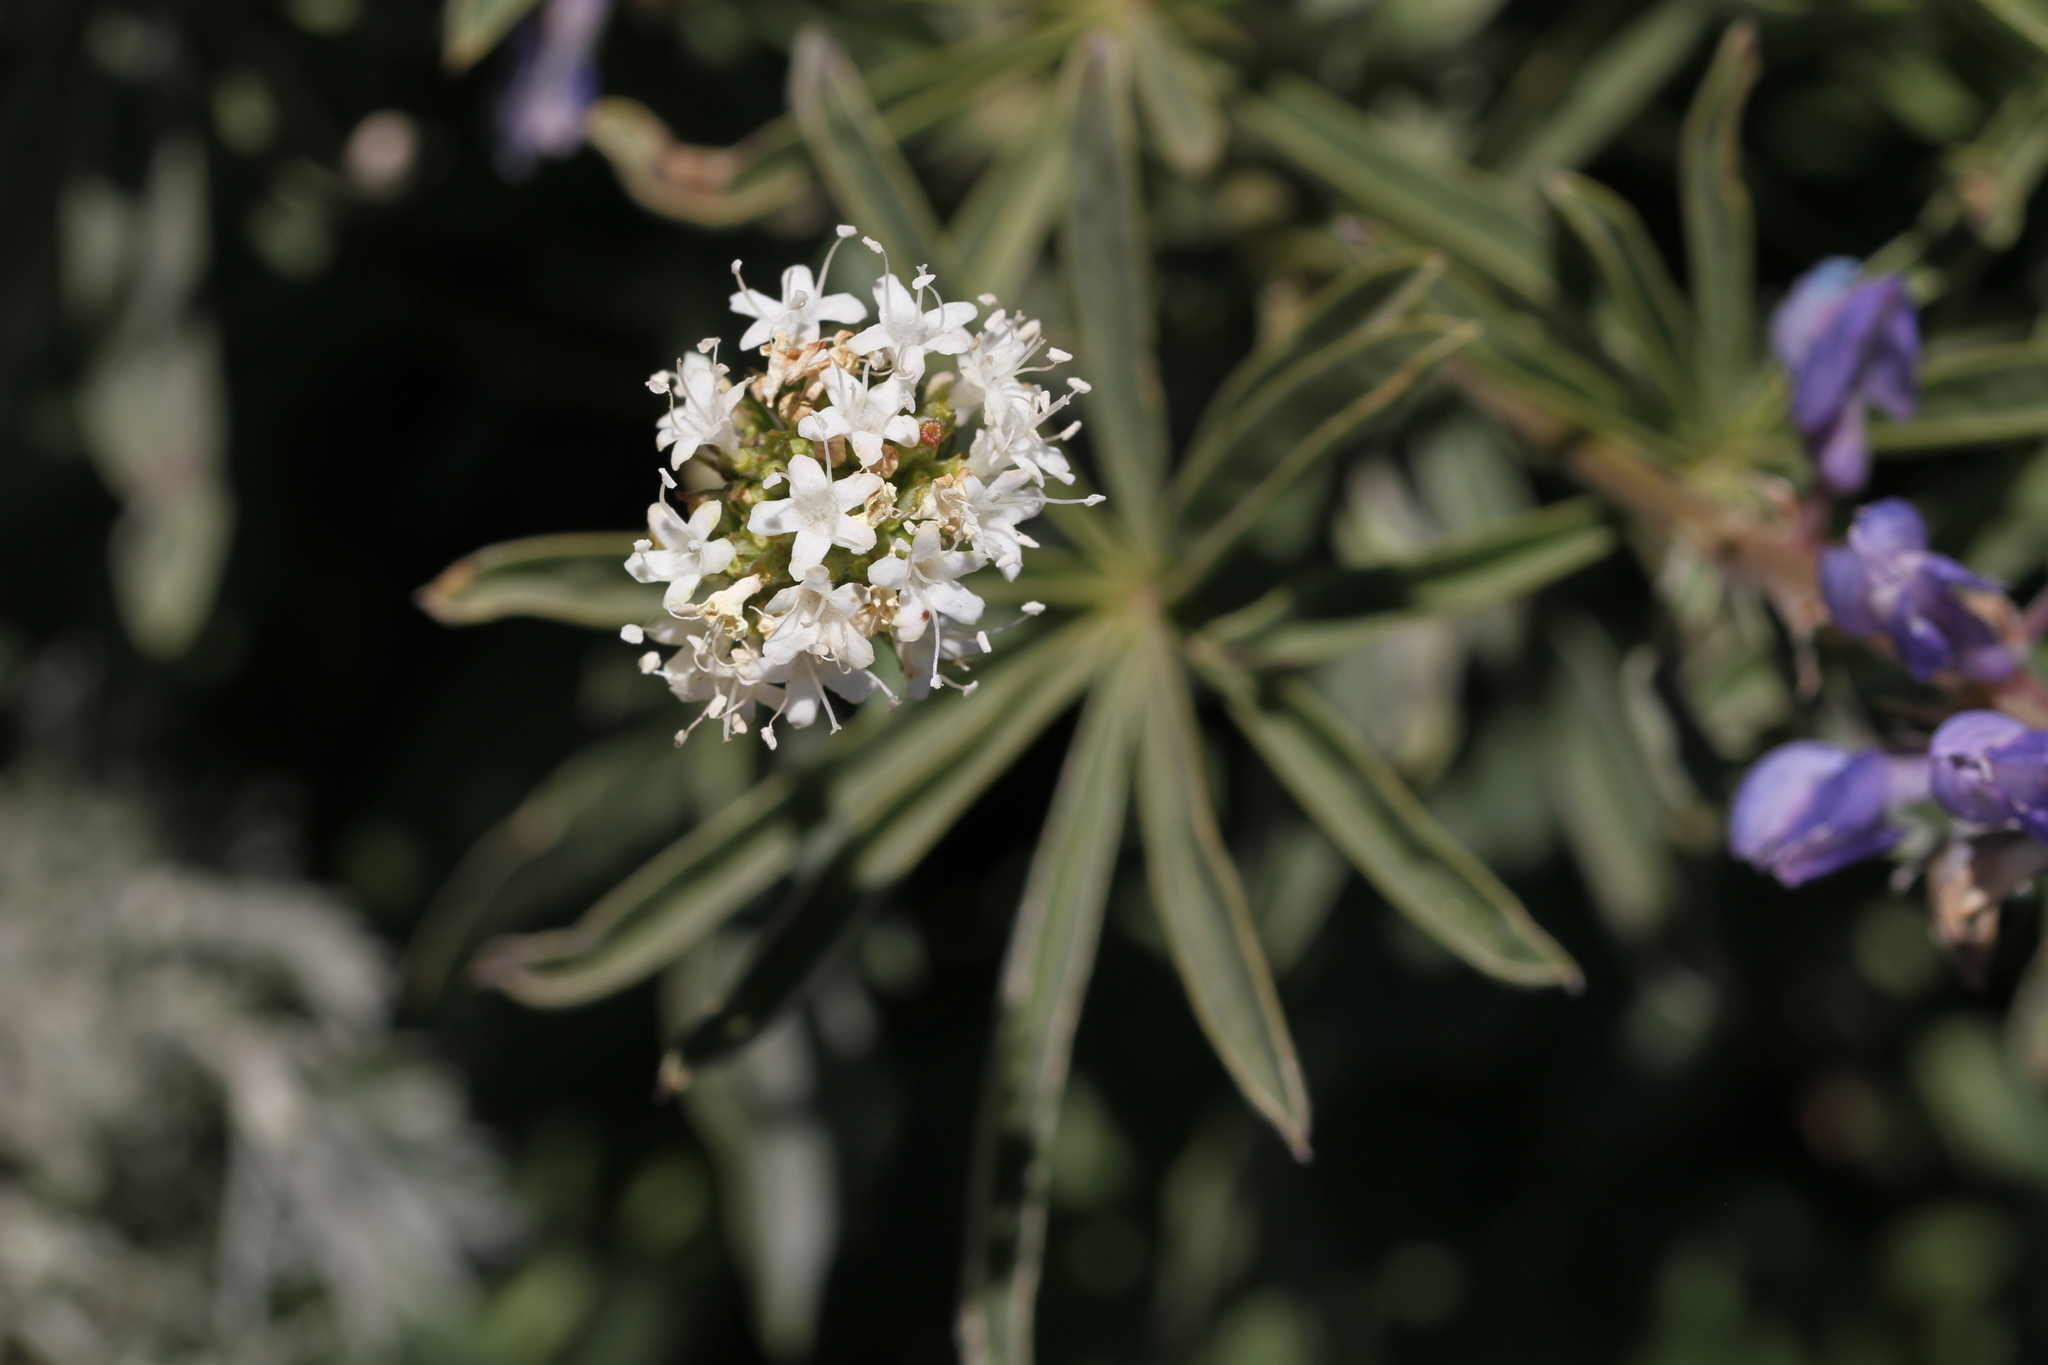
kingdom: Plantae
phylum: Tracheophyta
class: Magnoliopsida
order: Dipsacales
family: Caprifoliaceae
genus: Valeriana
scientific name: Valeriana californica
